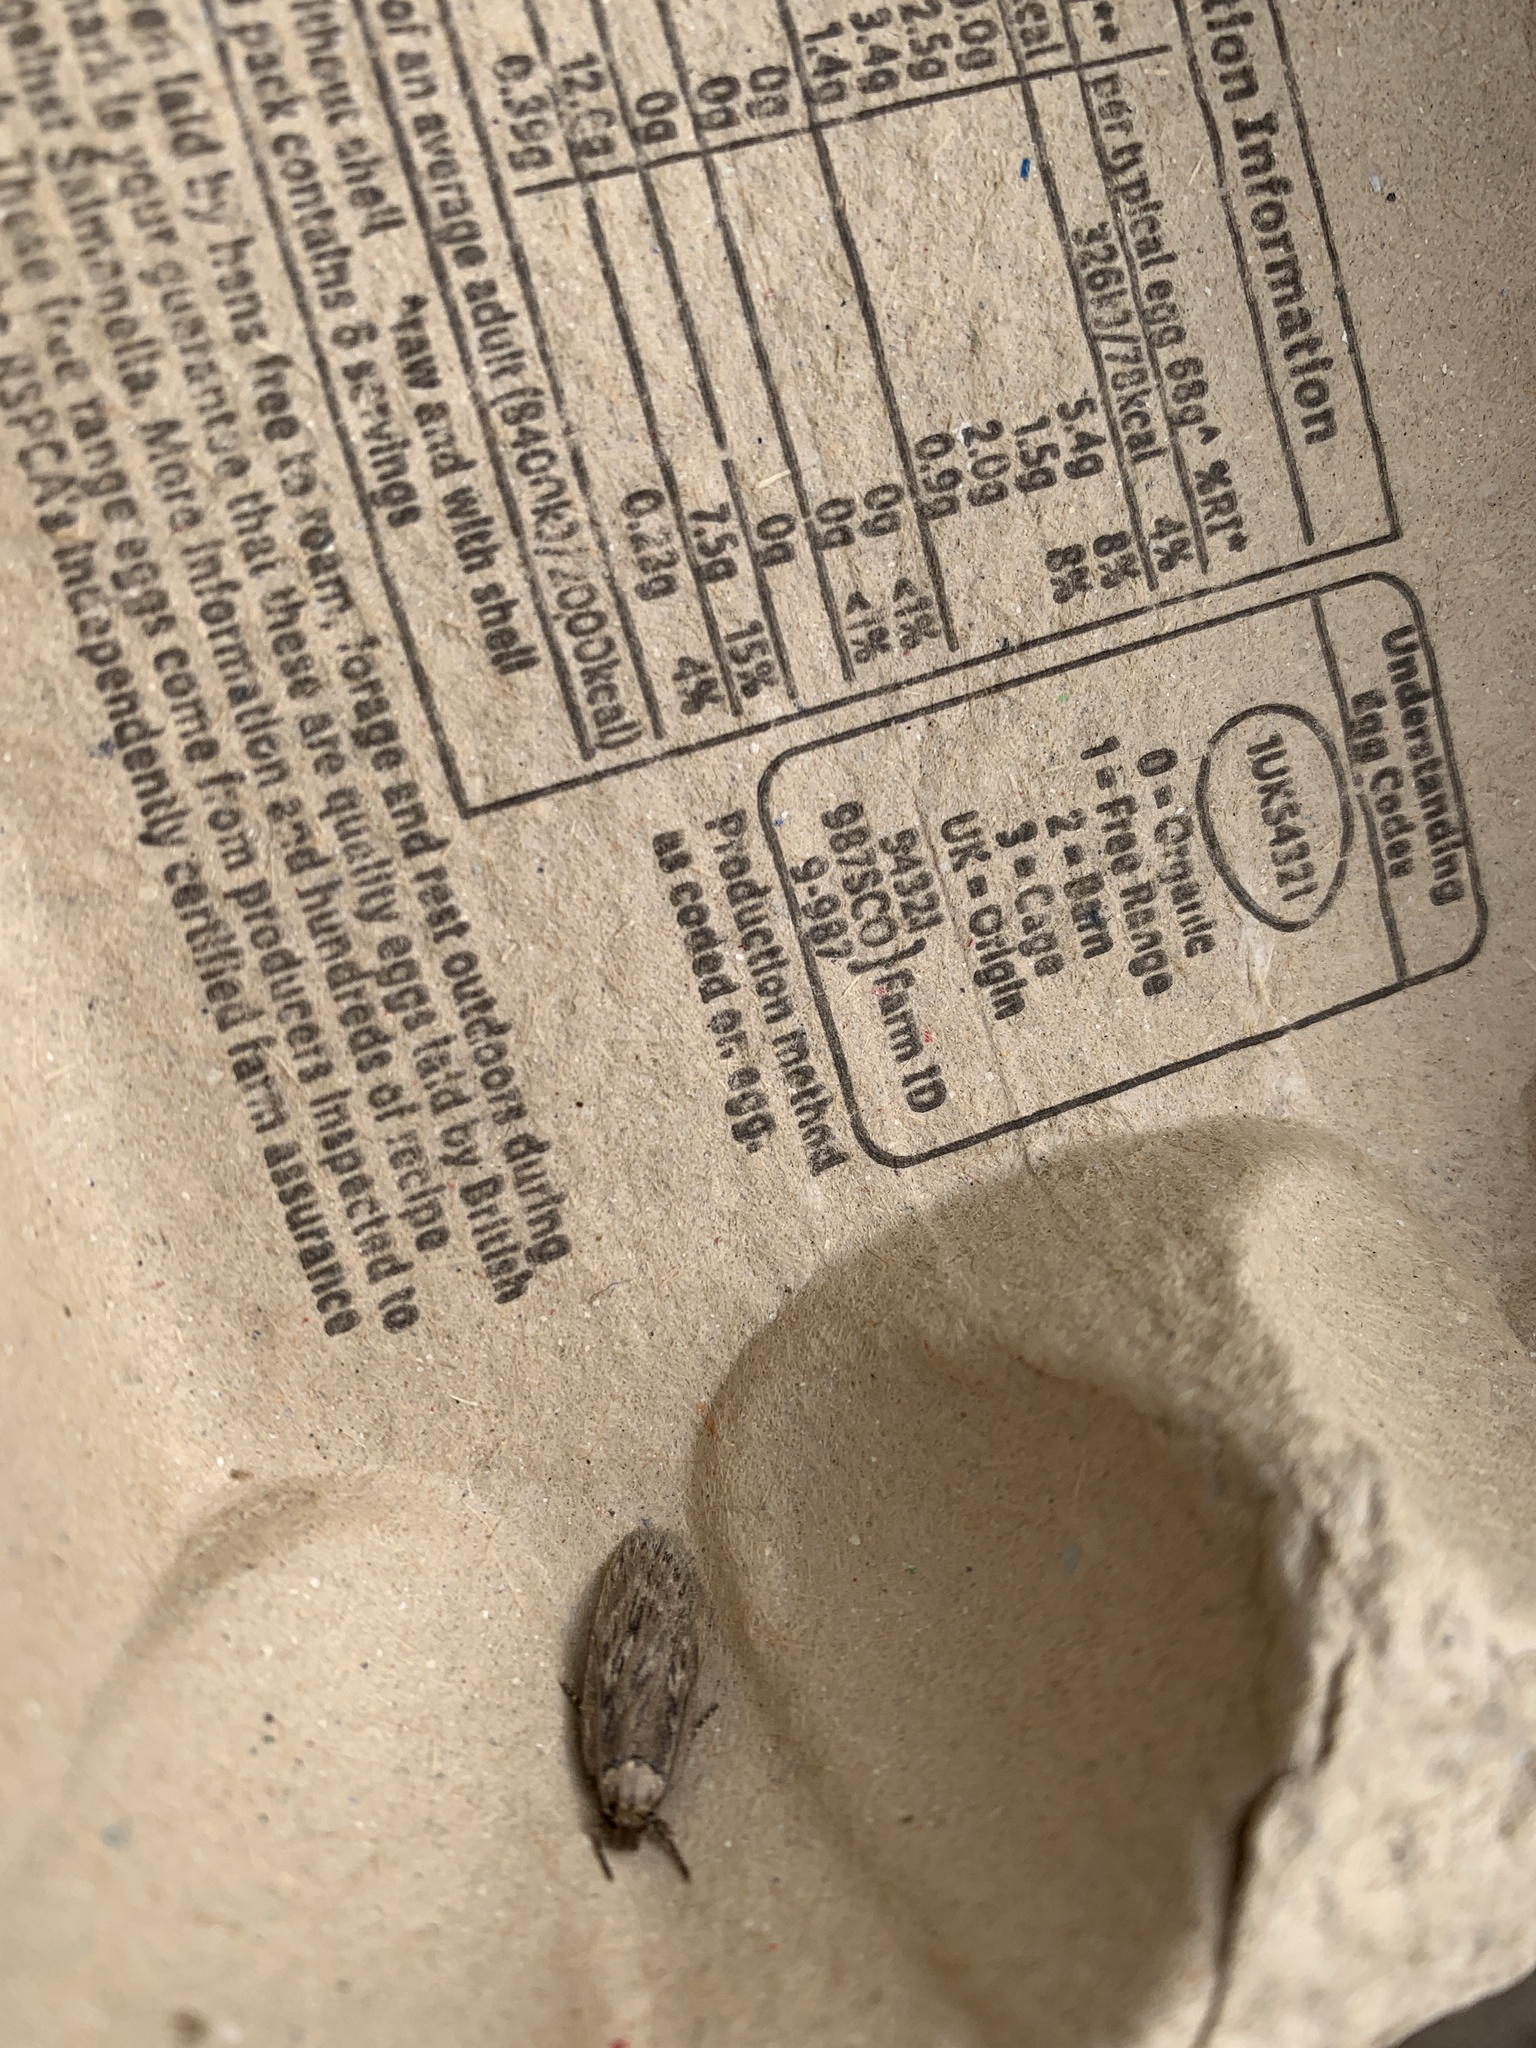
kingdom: Animalia
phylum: Arthropoda
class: Insecta
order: Lepidoptera
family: Depressariidae
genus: Agonopterix
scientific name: Agonopterix heracliana
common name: Common flat-body
